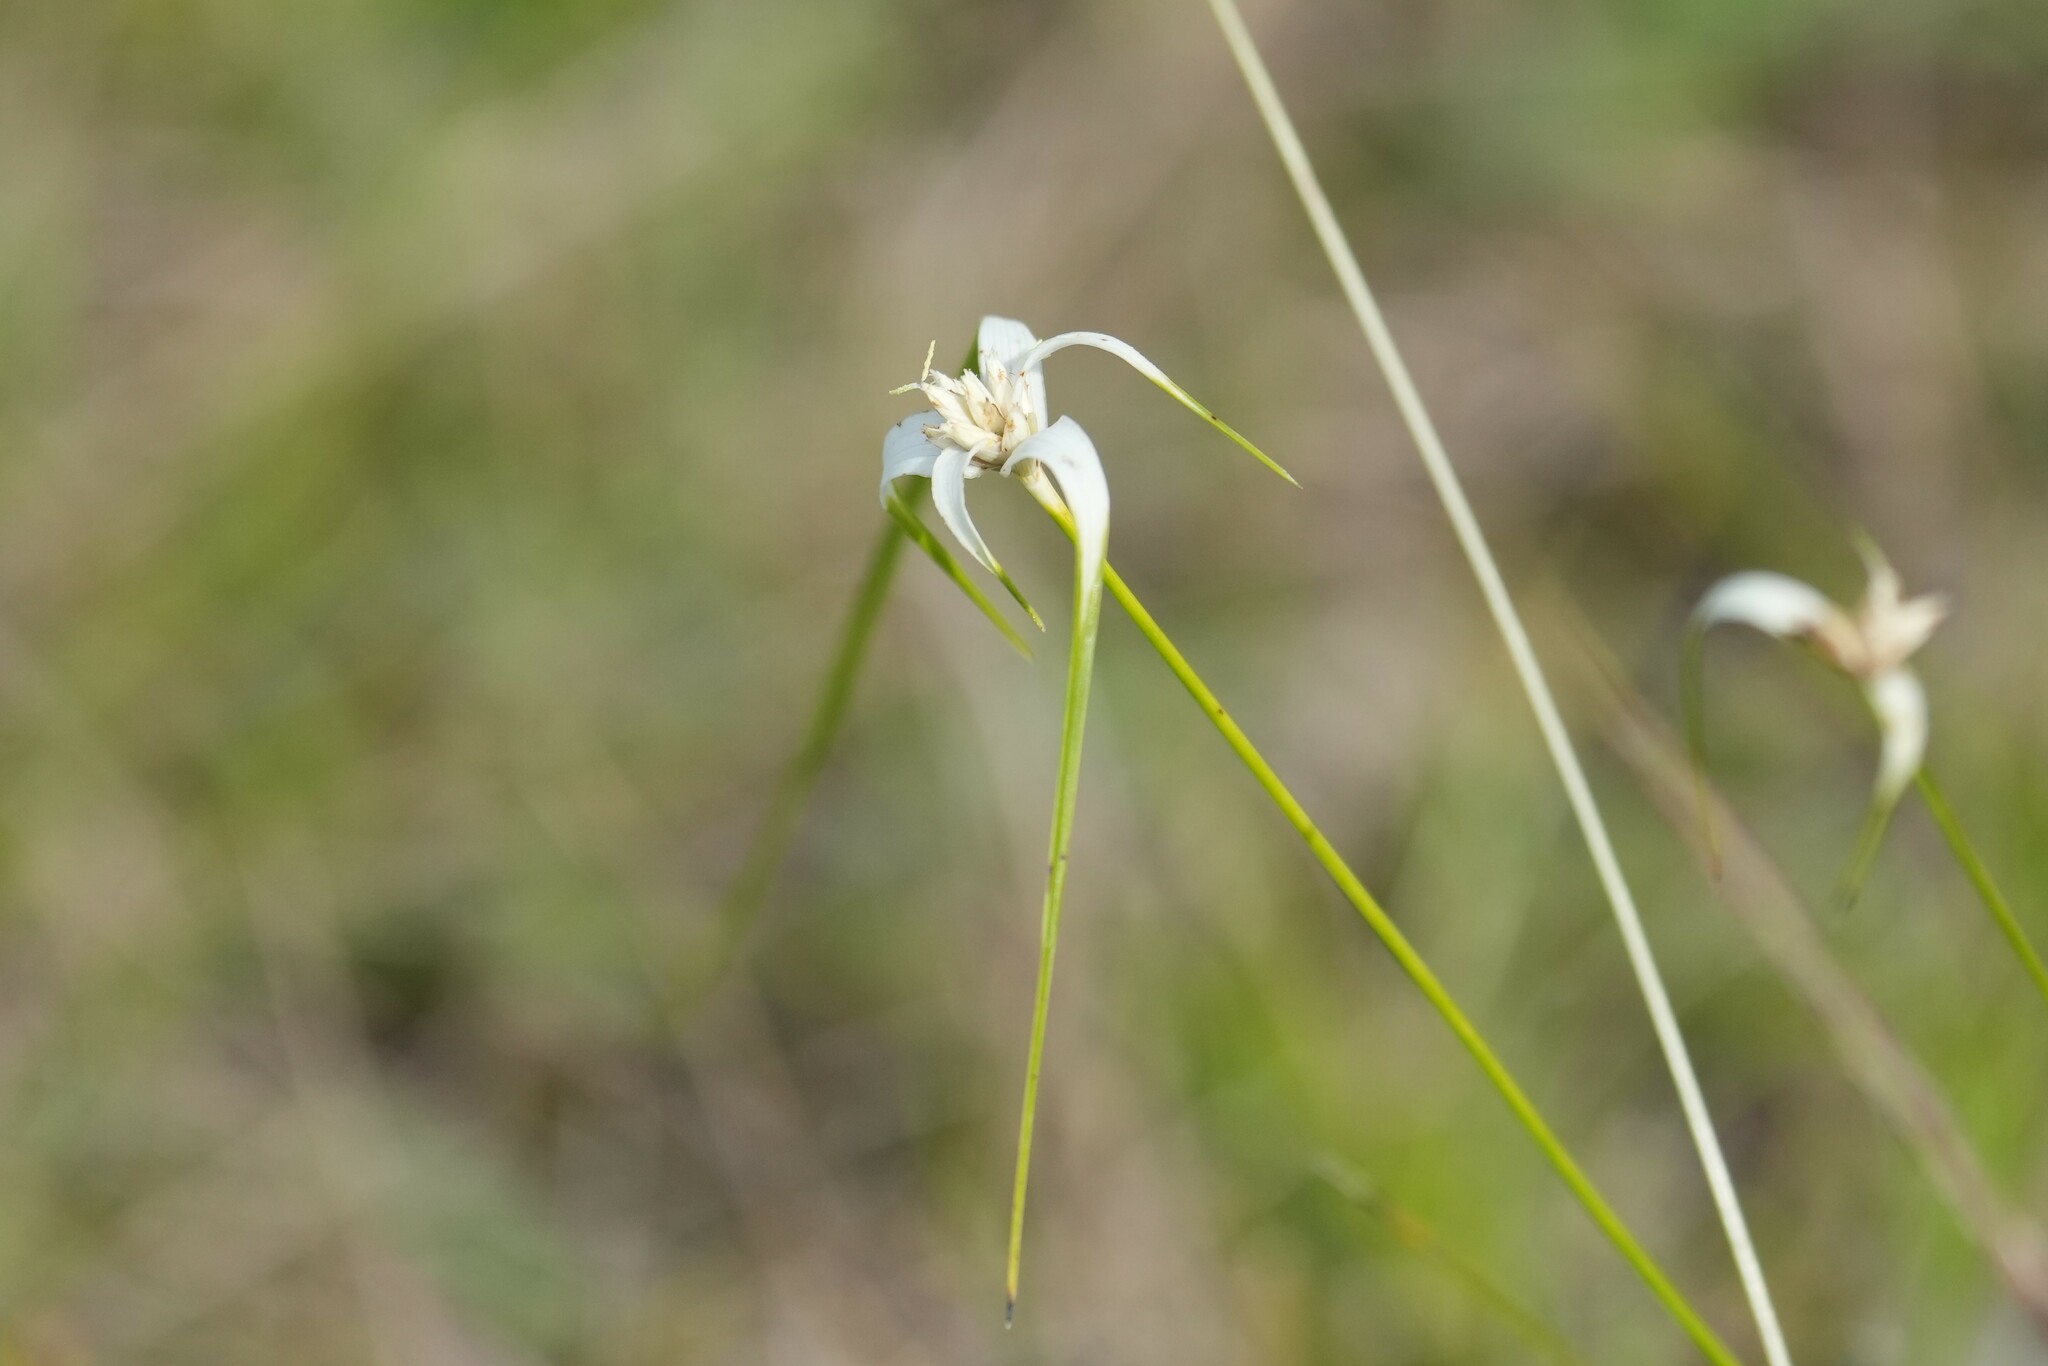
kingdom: Plantae
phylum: Tracheophyta
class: Liliopsida
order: Poales
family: Cyperaceae
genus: Rhynchospora
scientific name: Rhynchospora colorata
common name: Star sedge
